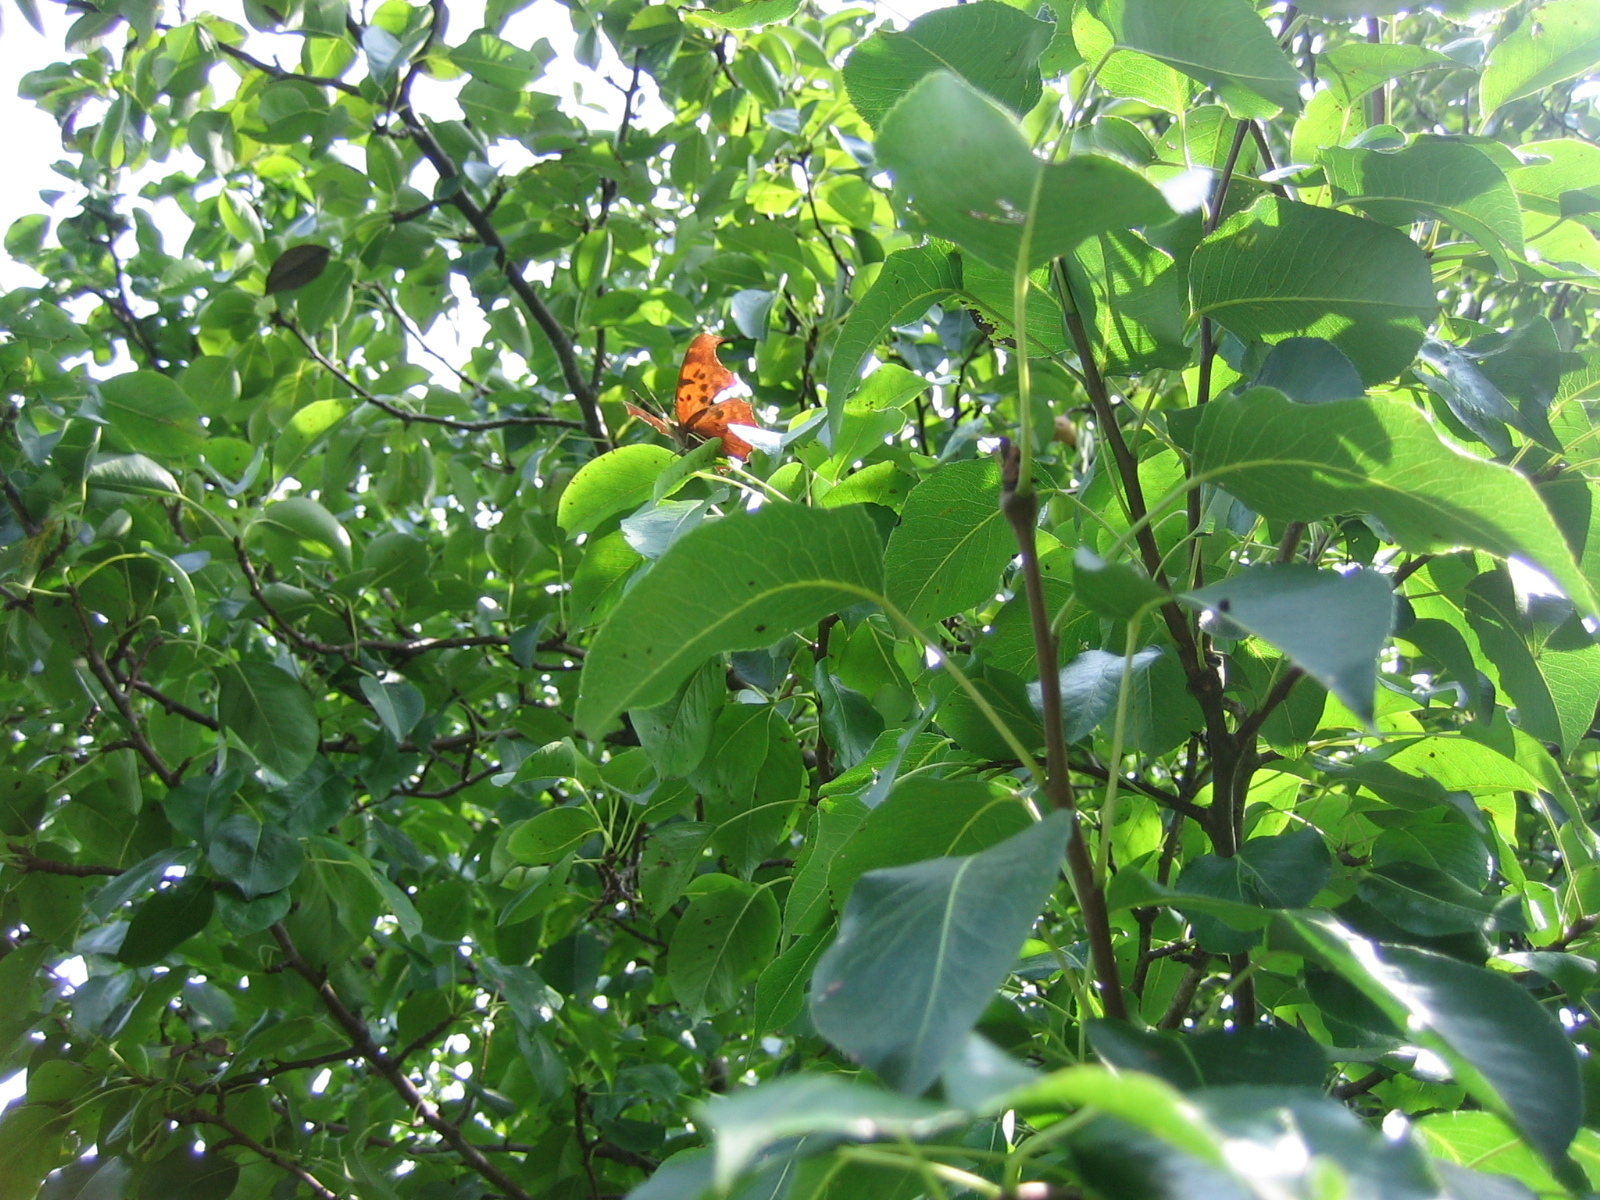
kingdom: Animalia
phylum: Arthropoda
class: Insecta
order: Lepidoptera
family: Nymphalidae
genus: Polygonia
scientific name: Polygonia interrogationis
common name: Question mark
